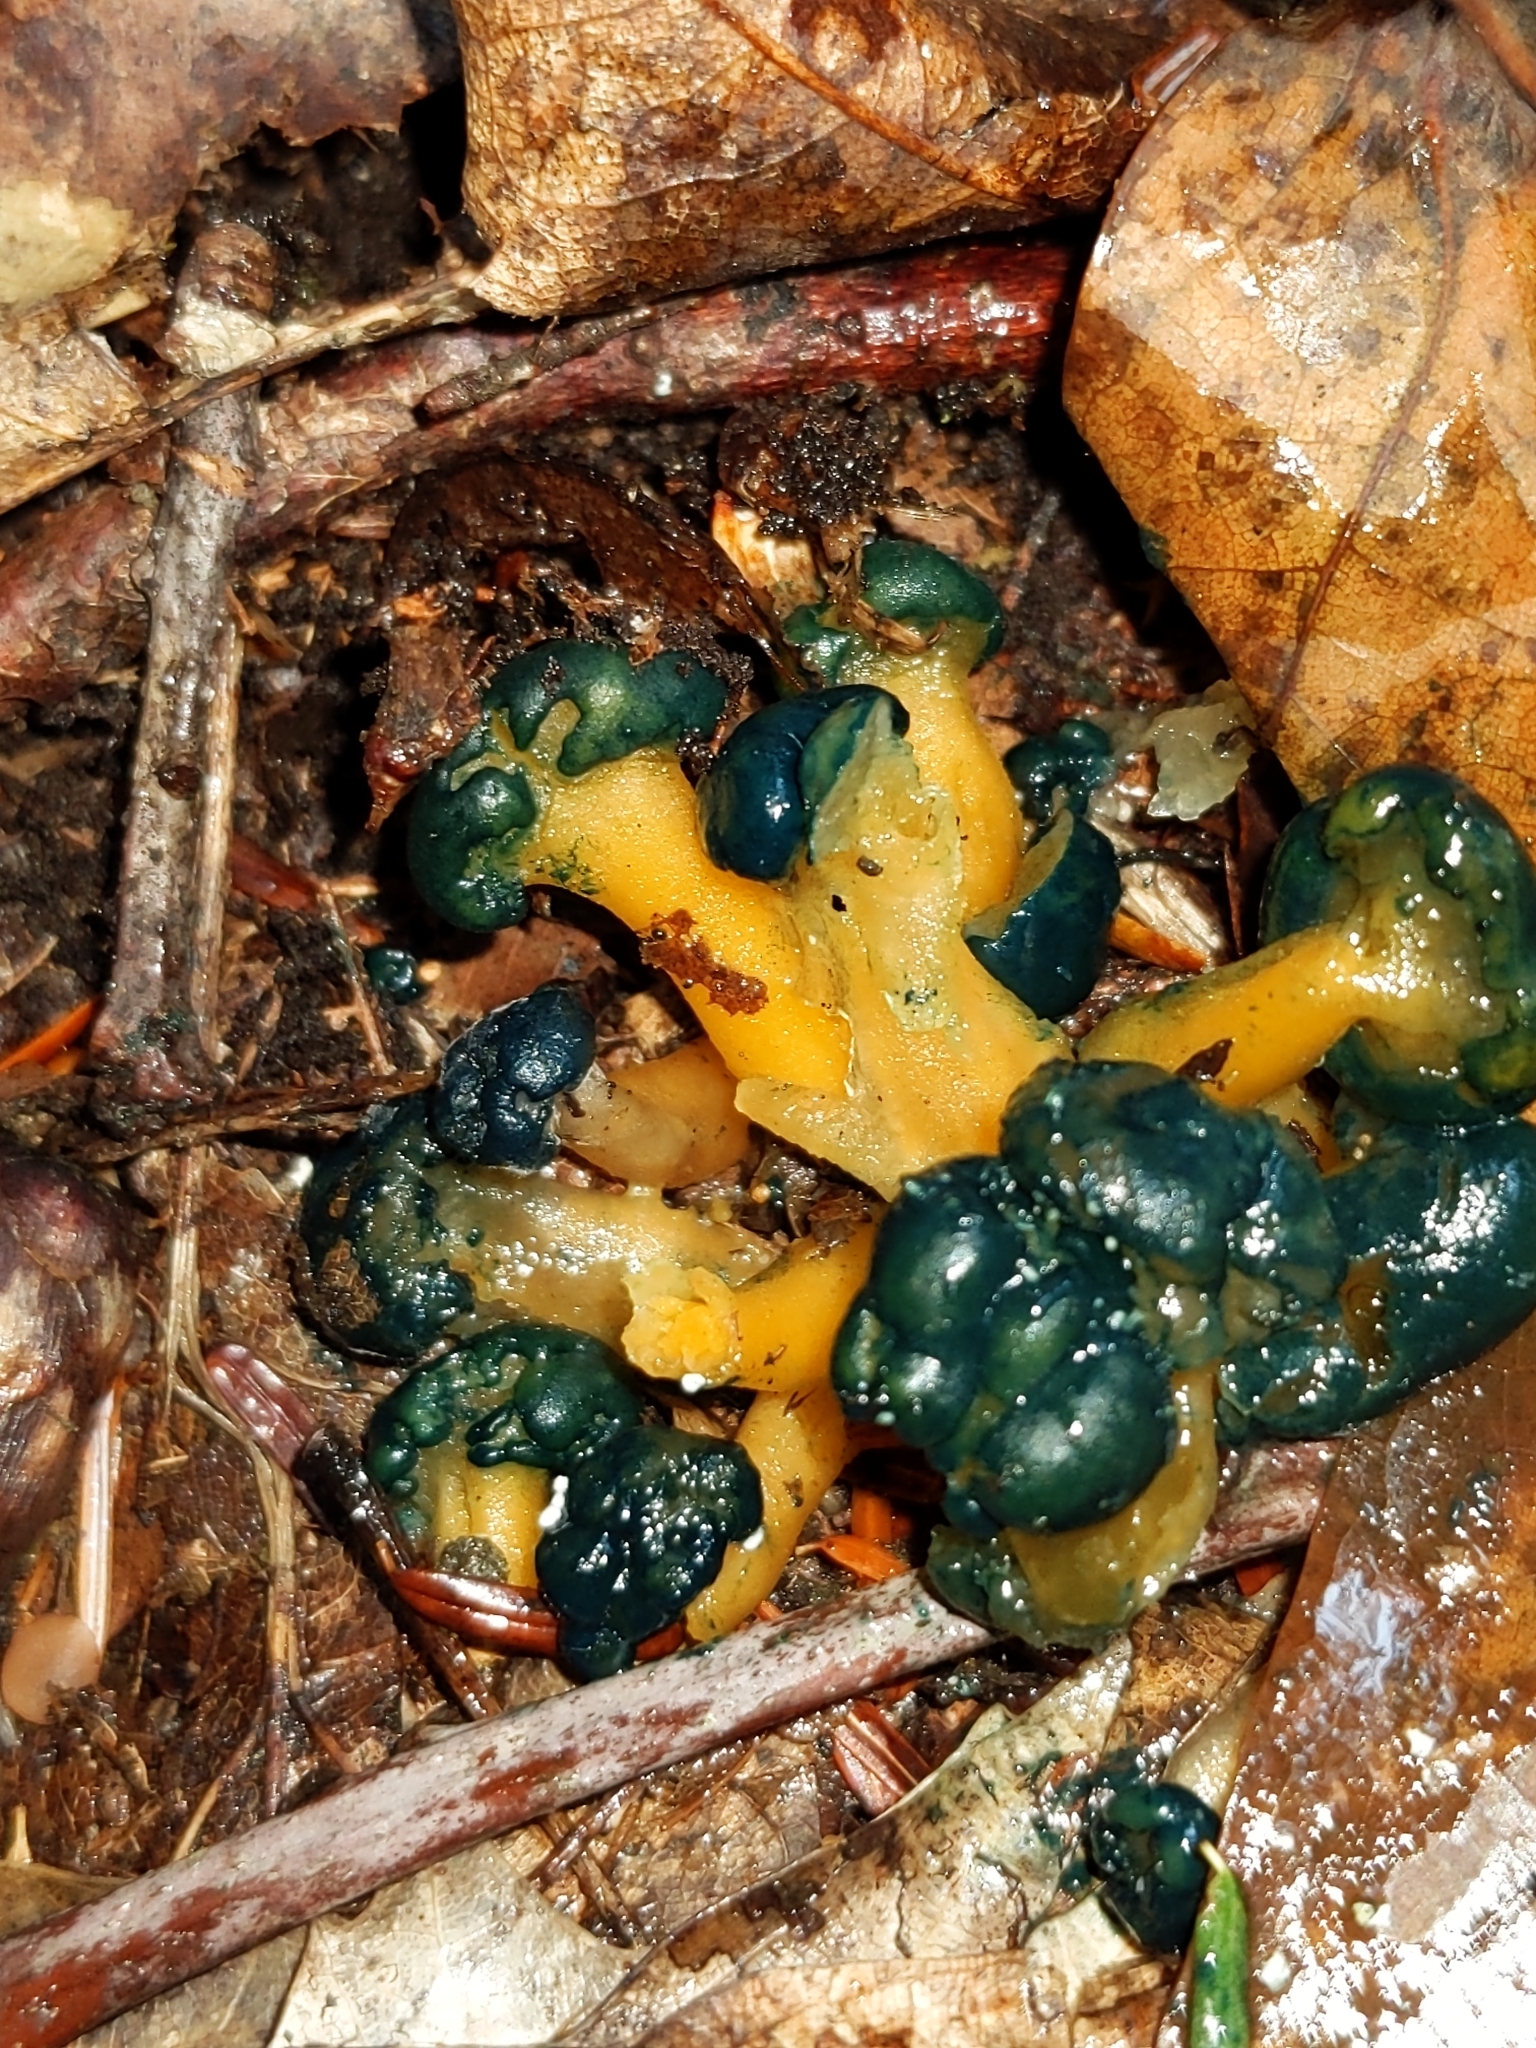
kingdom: Fungi
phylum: Ascomycota
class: Leotiomycetes
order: Leotiales
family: Leotiaceae
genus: Leotia
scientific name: Leotia lubrica
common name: Jellybaby
